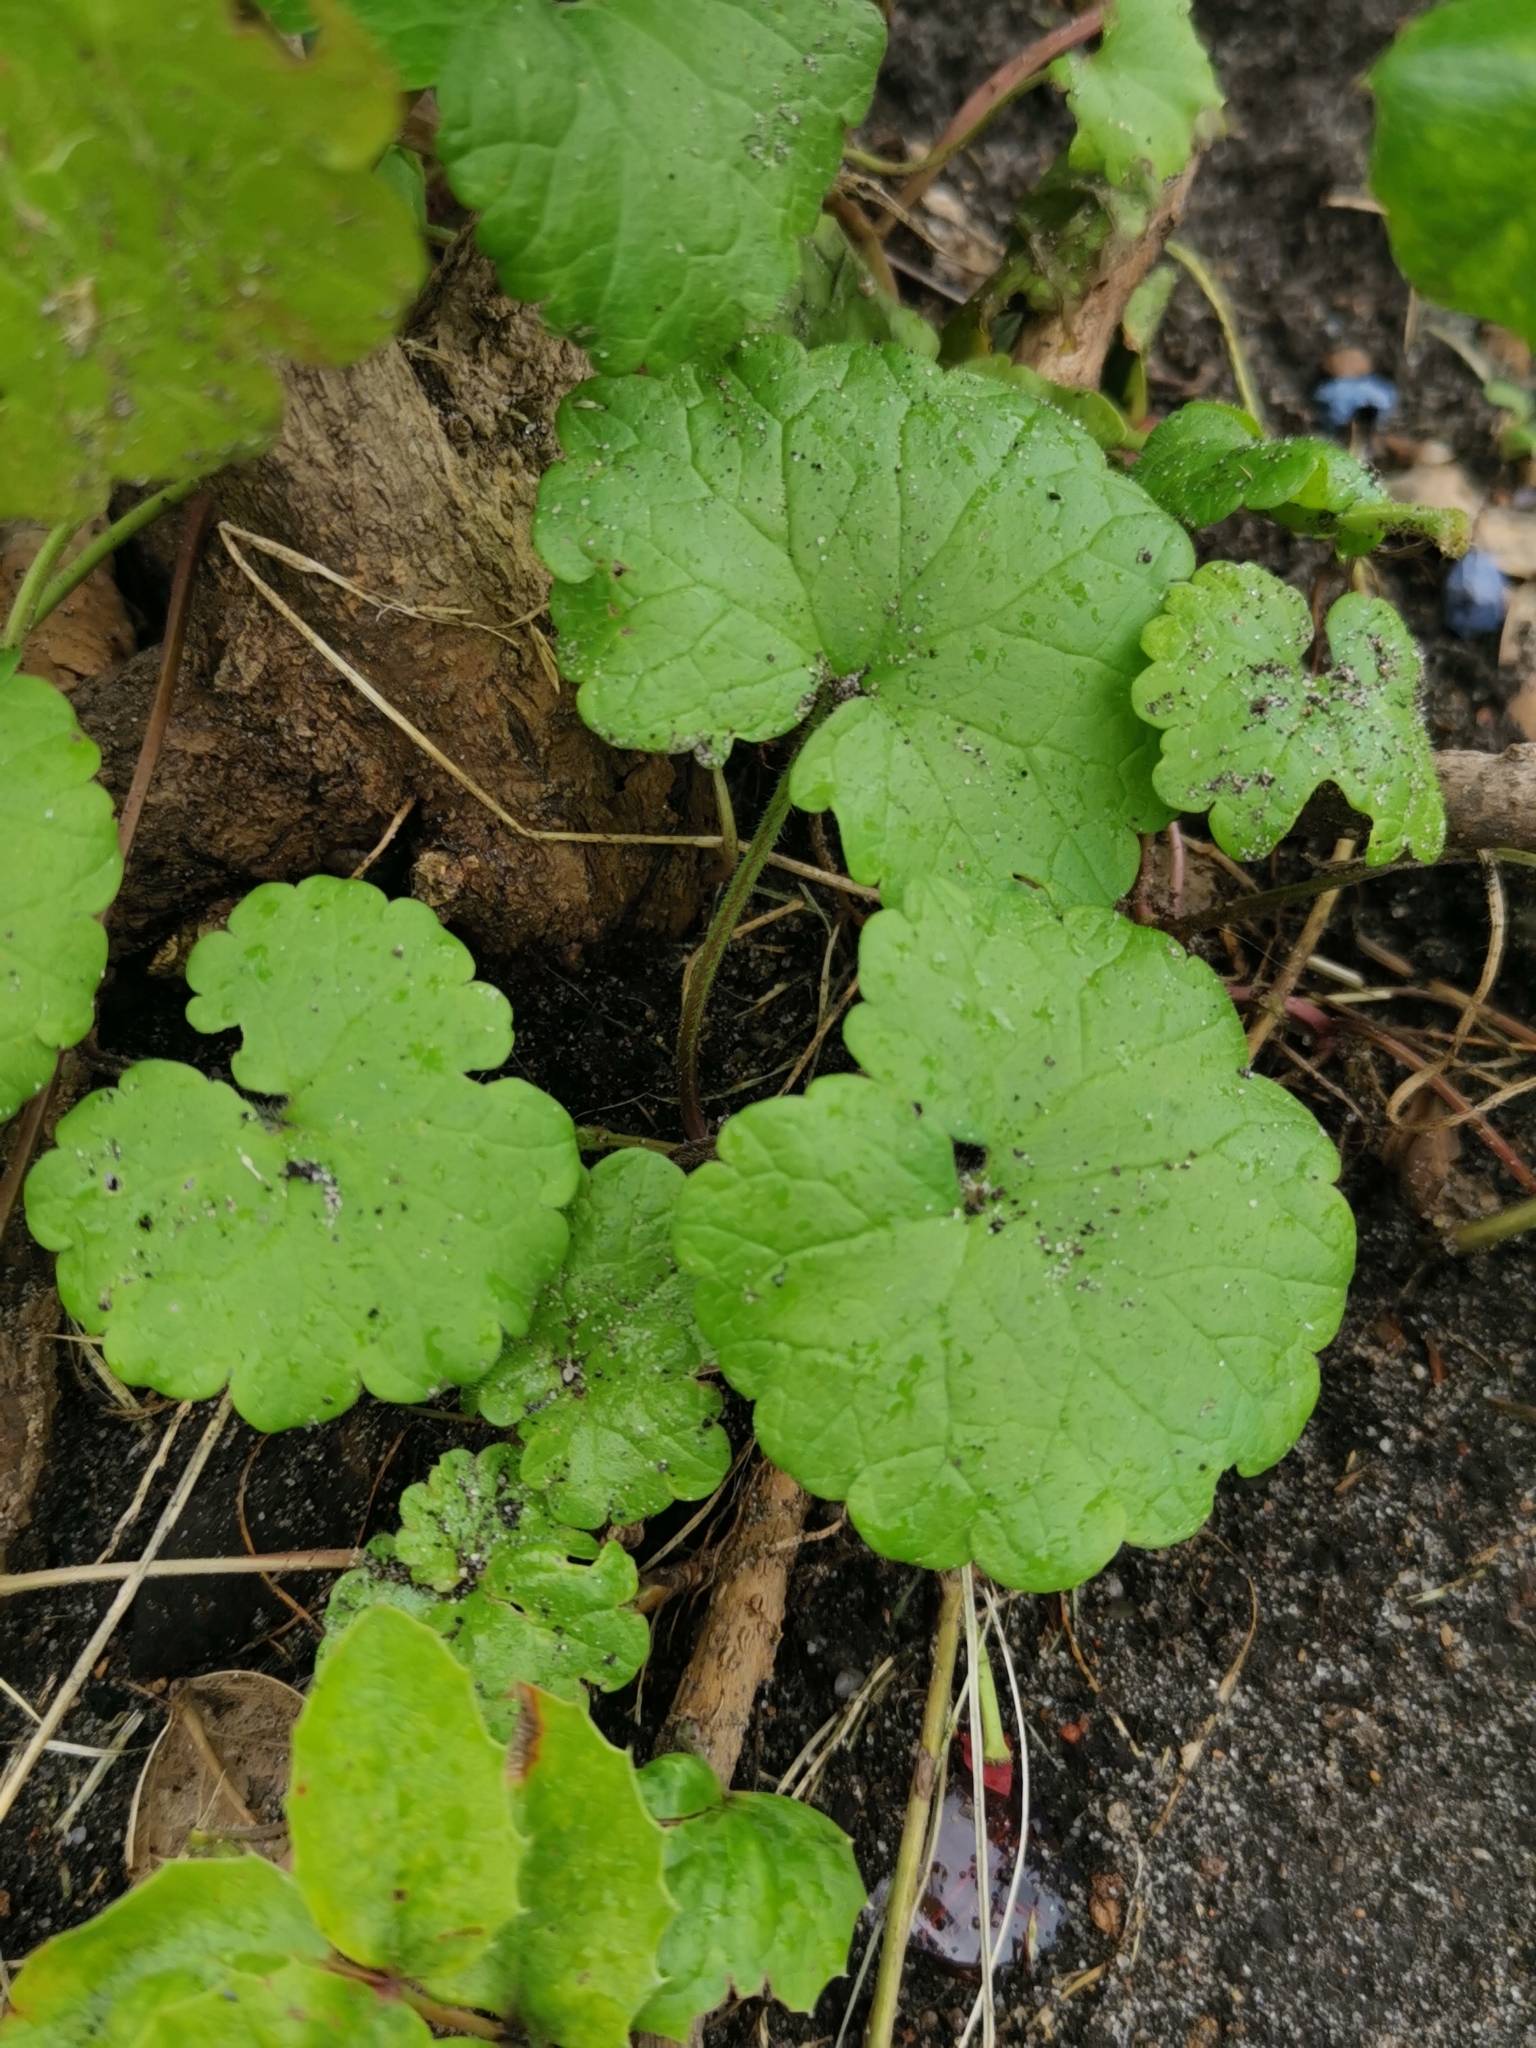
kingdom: Plantae
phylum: Tracheophyta
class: Magnoliopsida
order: Lamiales
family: Lamiaceae
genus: Glechoma
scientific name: Glechoma hederacea
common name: Ground ivy
